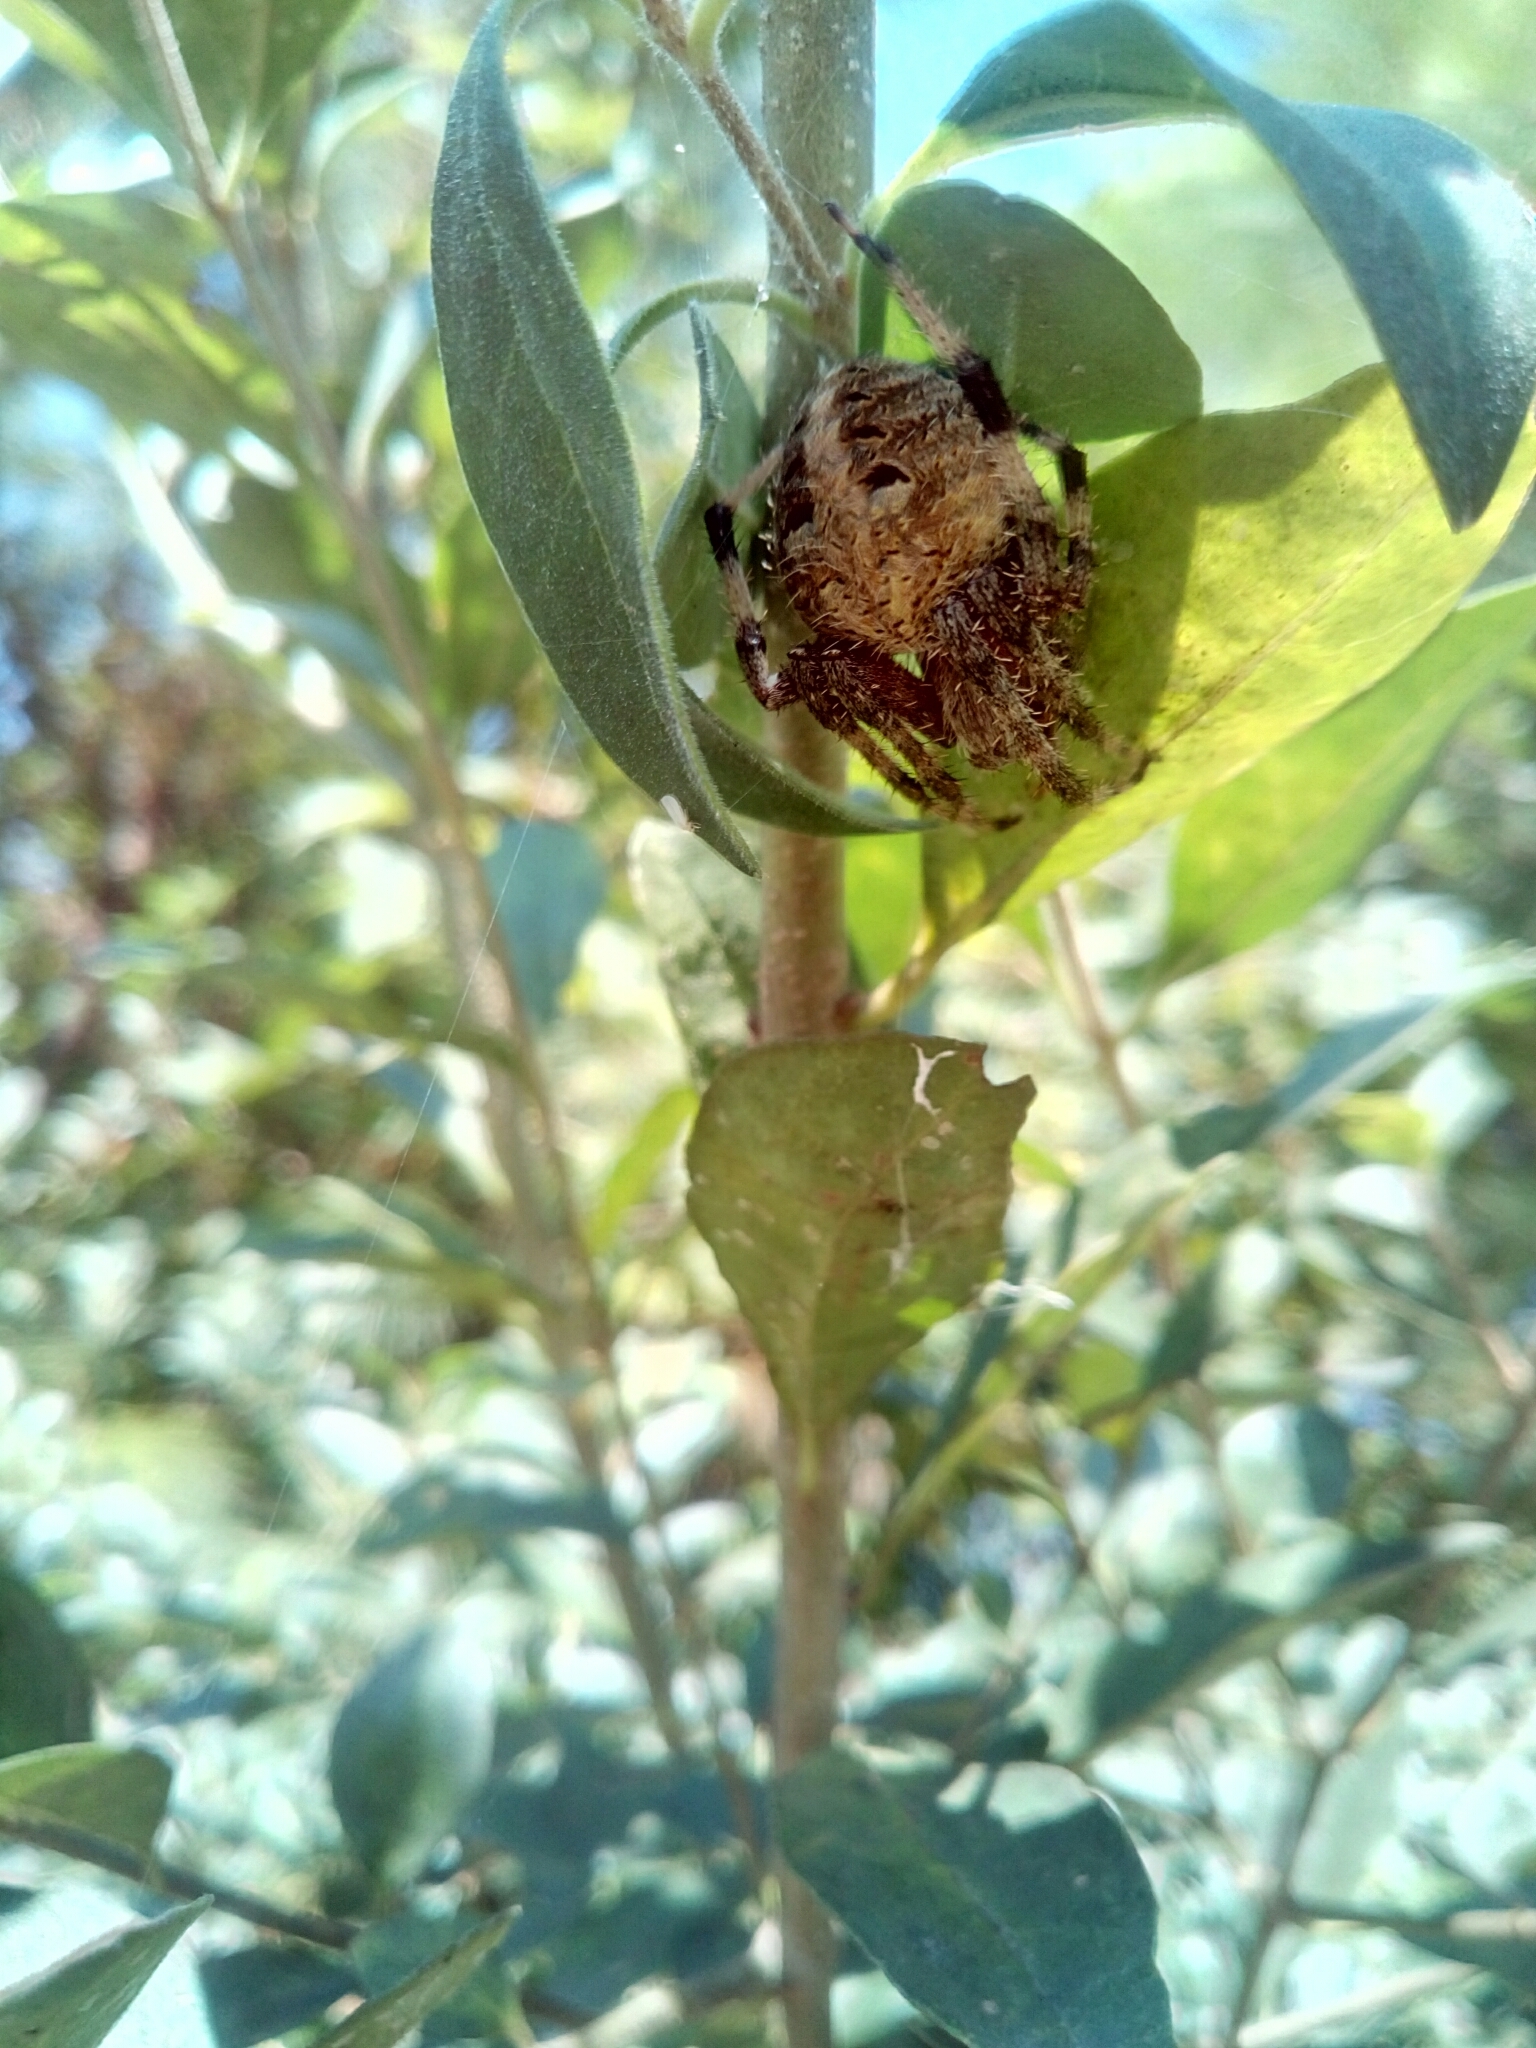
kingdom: Animalia
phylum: Arthropoda
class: Arachnida
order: Araneae
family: Araneidae
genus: Neoscona
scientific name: Neoscona arabesca
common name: Orb weavers
